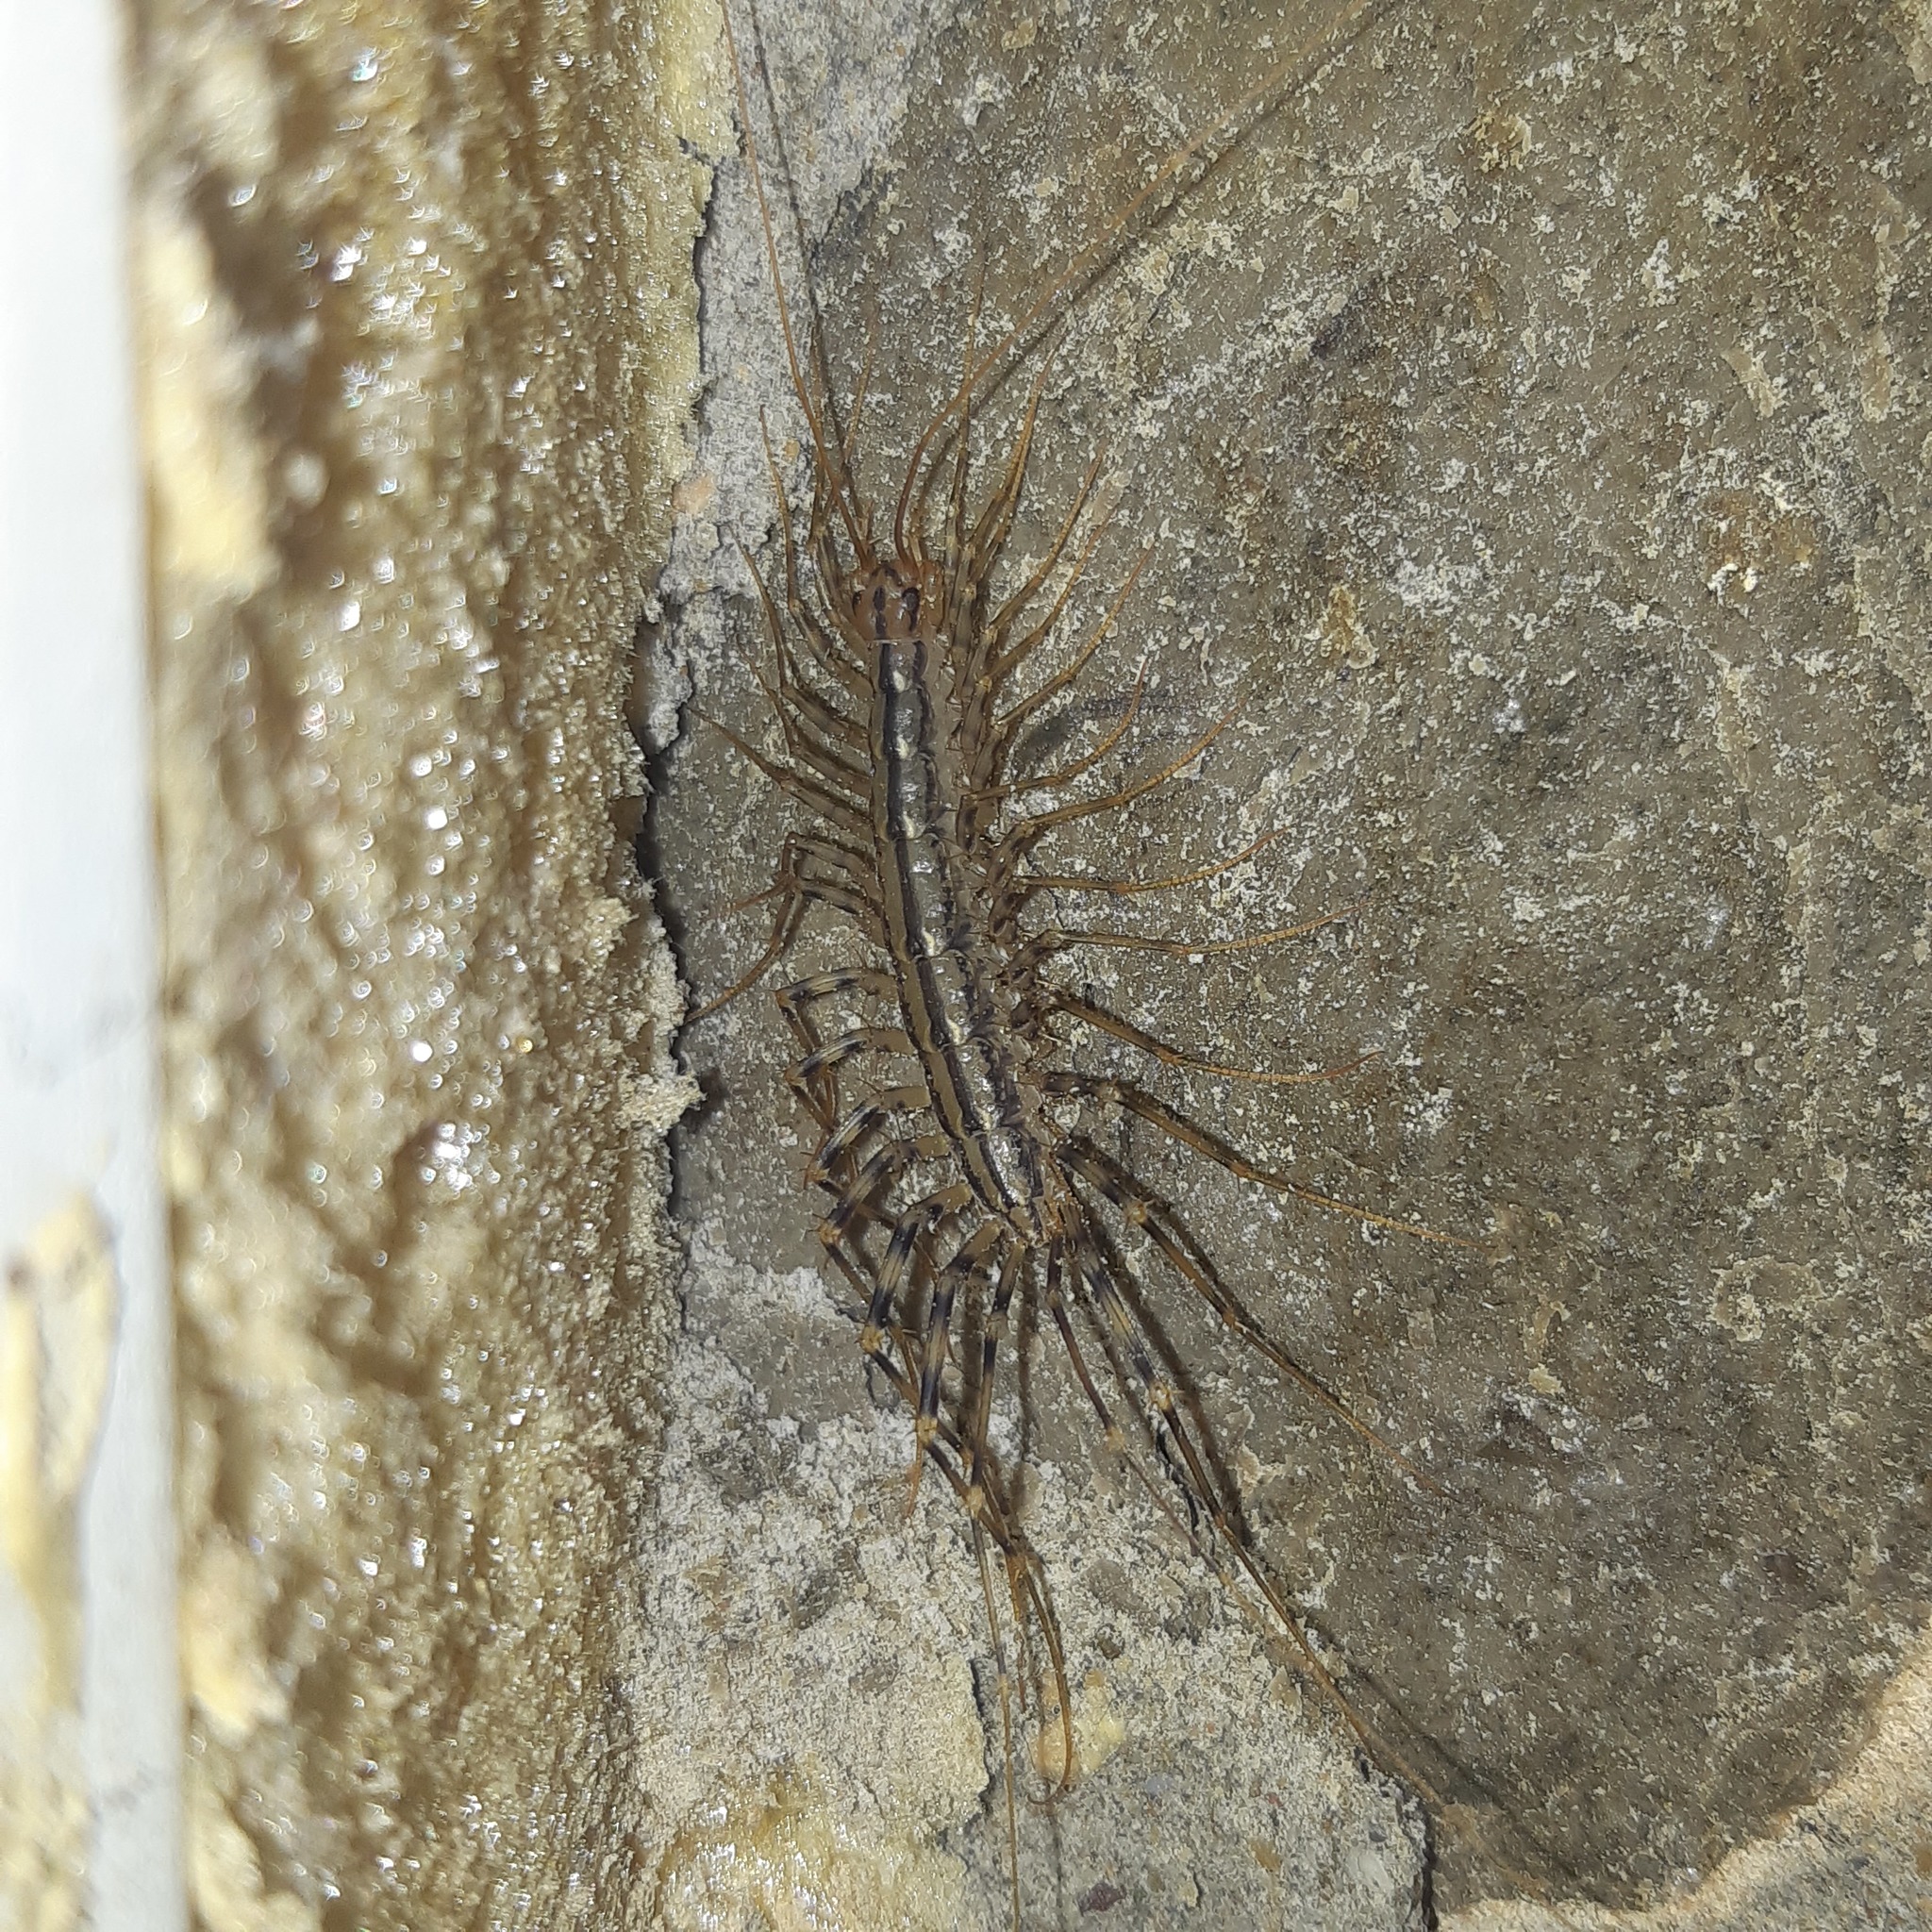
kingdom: Animalia
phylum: Arthropoda
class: Chilopoda
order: Scutigeromorpha
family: Scutigeridae
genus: Scutigera
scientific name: Scutigera coleoptrata
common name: House centipede
